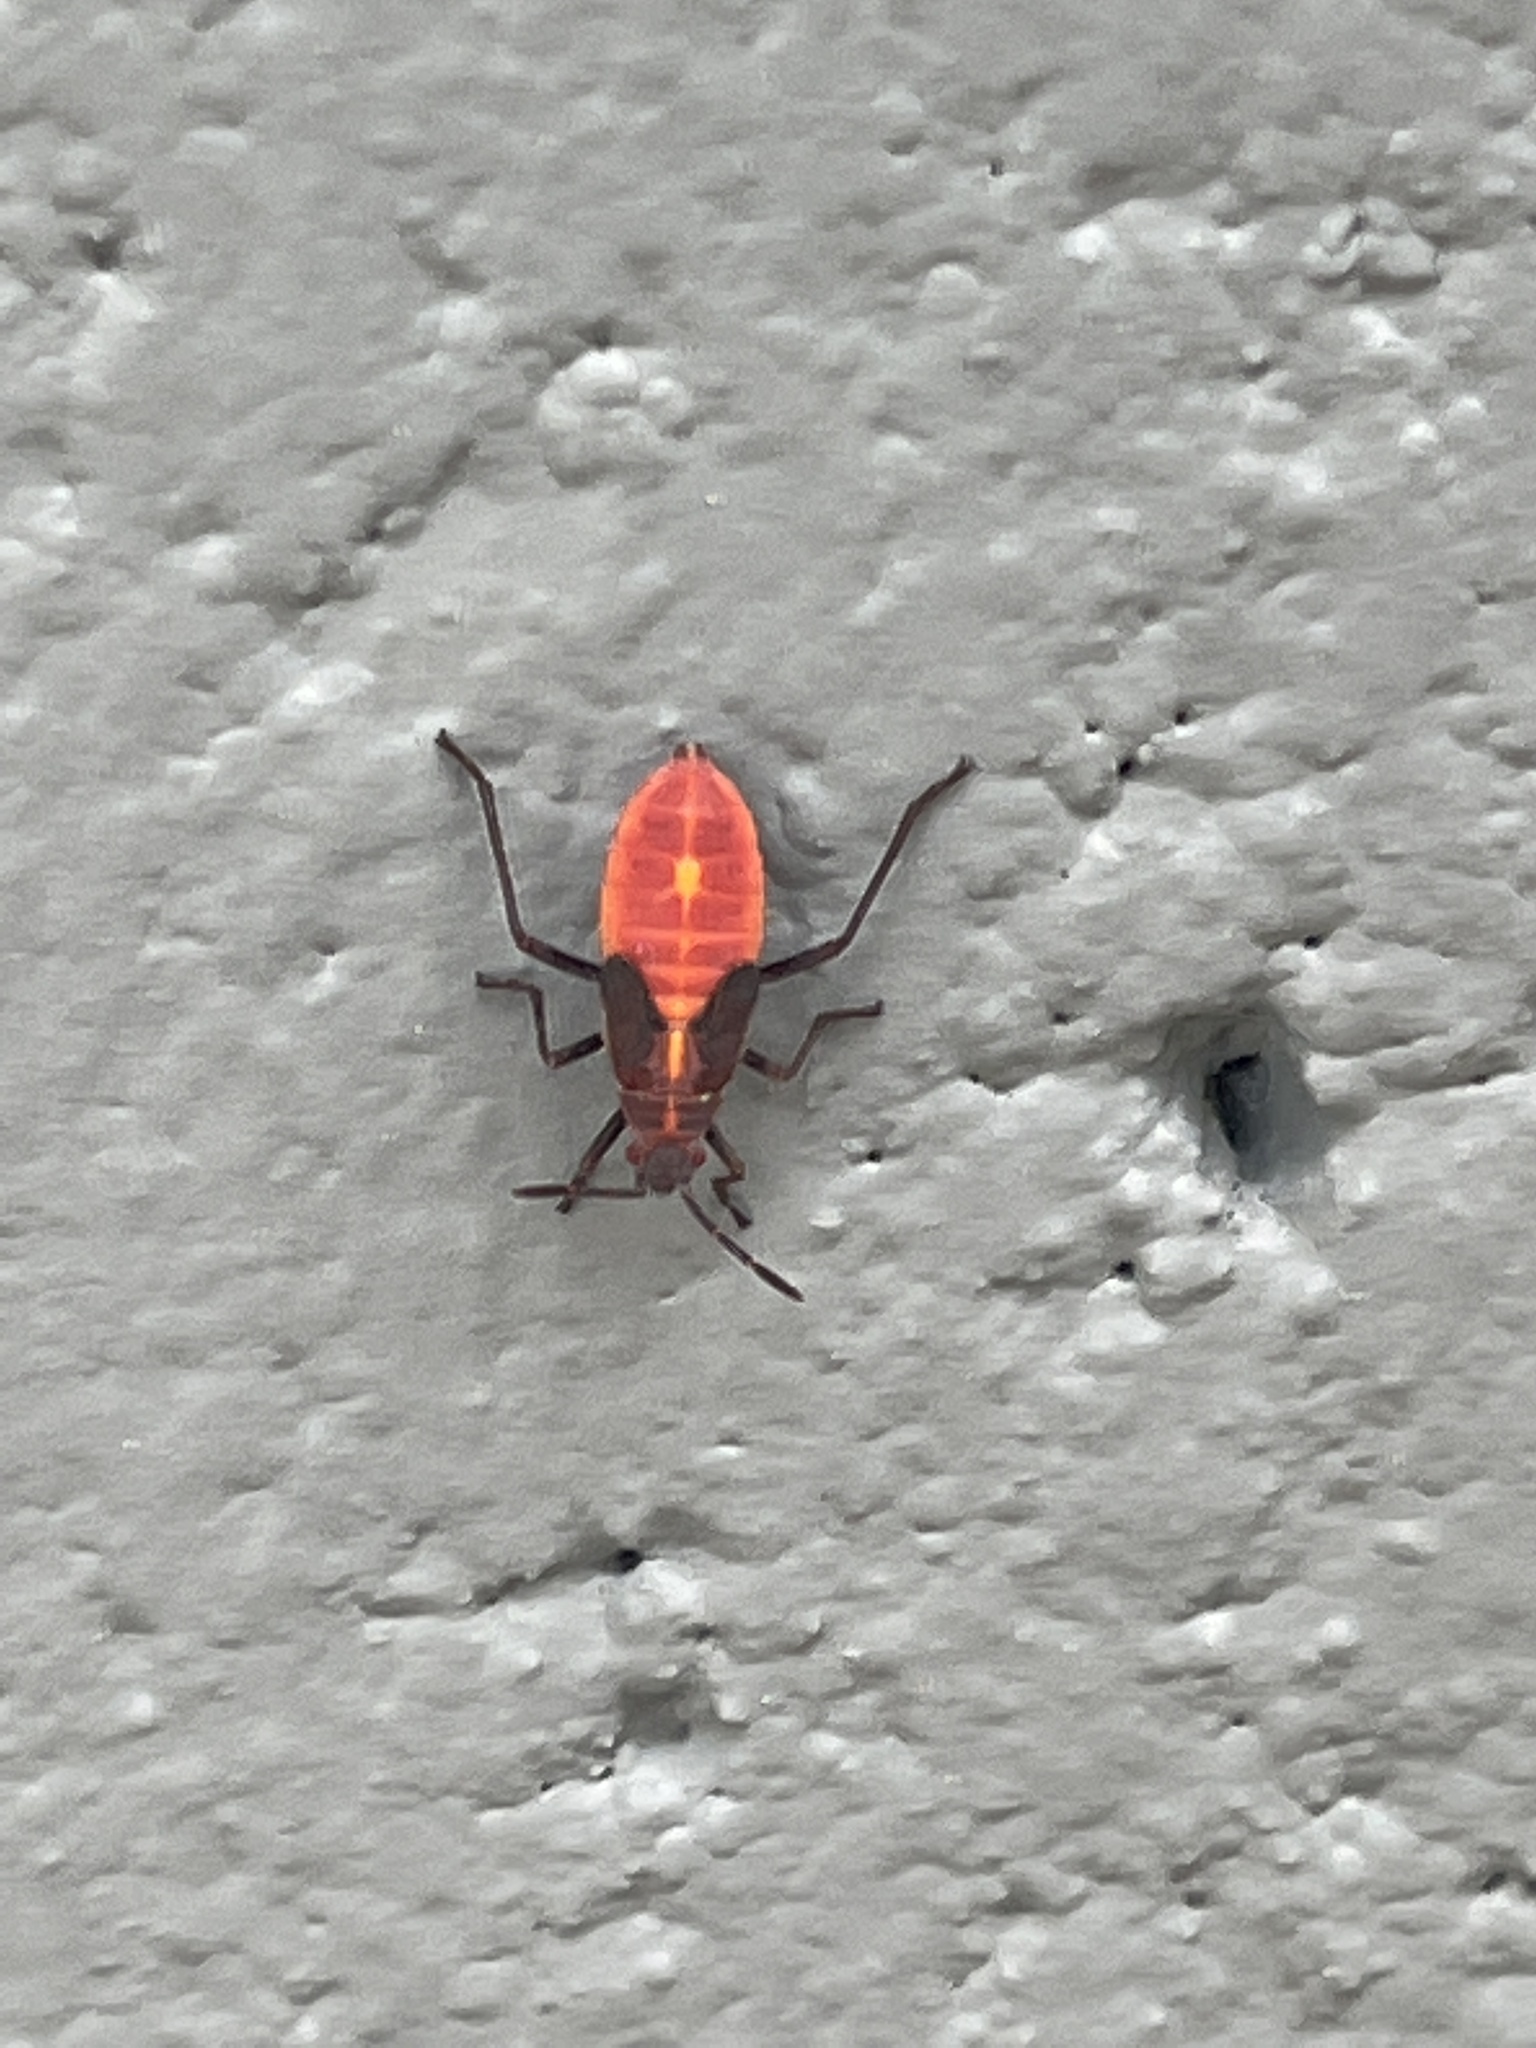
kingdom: Animalia
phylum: Arthropoda
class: Insecta
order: Hemiptera
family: Rhopalidae
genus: Boisea
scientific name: Boisea trivittata
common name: Boxelder bug
